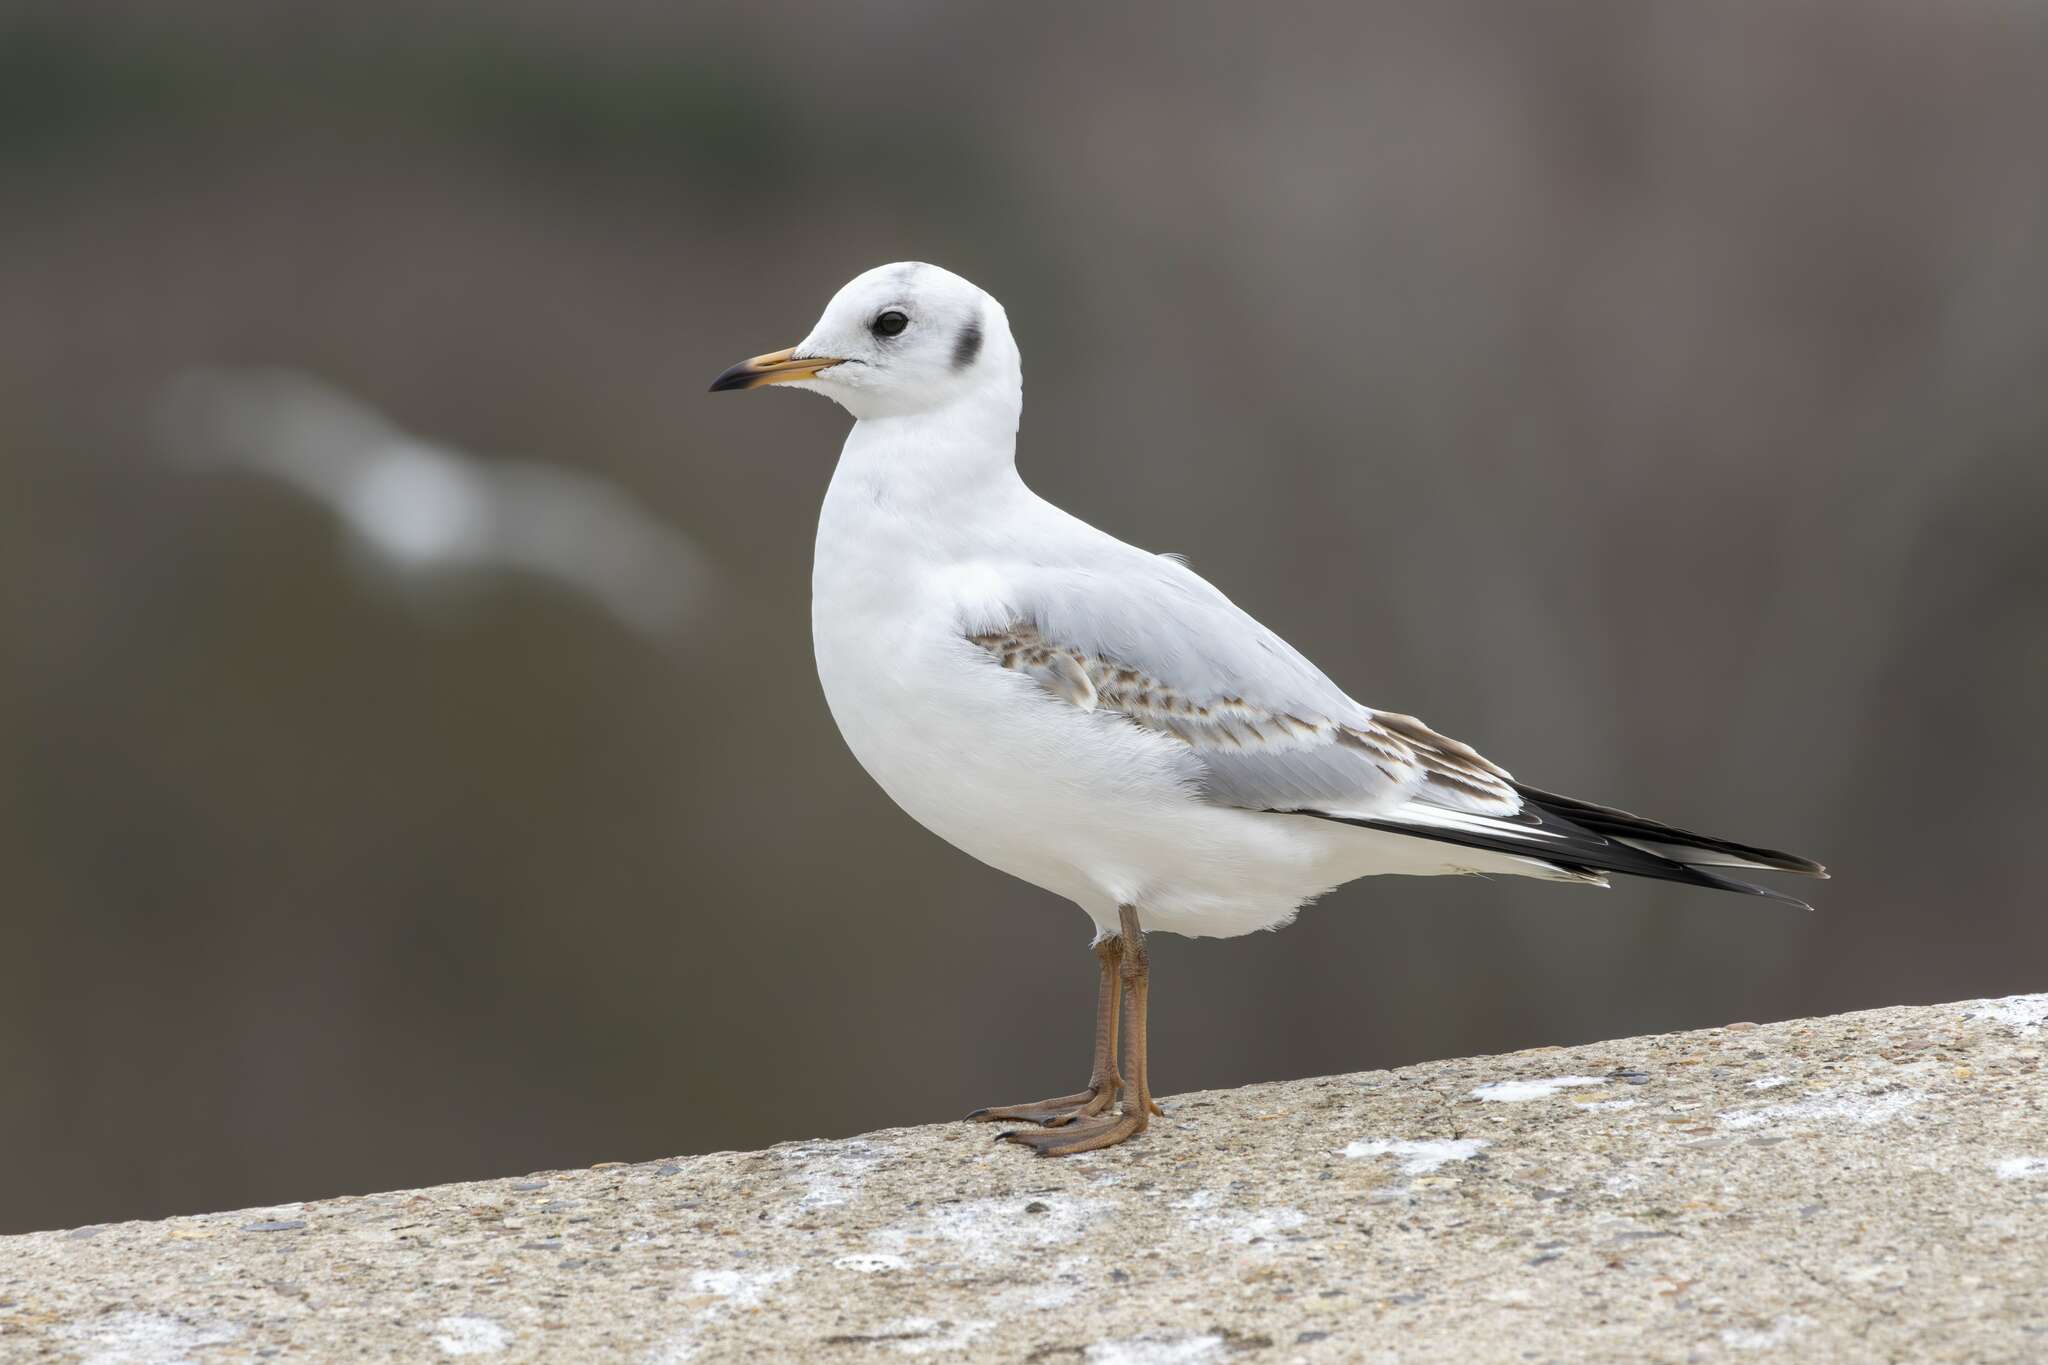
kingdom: Animalia
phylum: Chordata
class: Aves
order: Charadriiformes
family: Laridae
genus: Chroicocephalus
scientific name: Chroicocephalus ridibundus
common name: Black-headed gull
